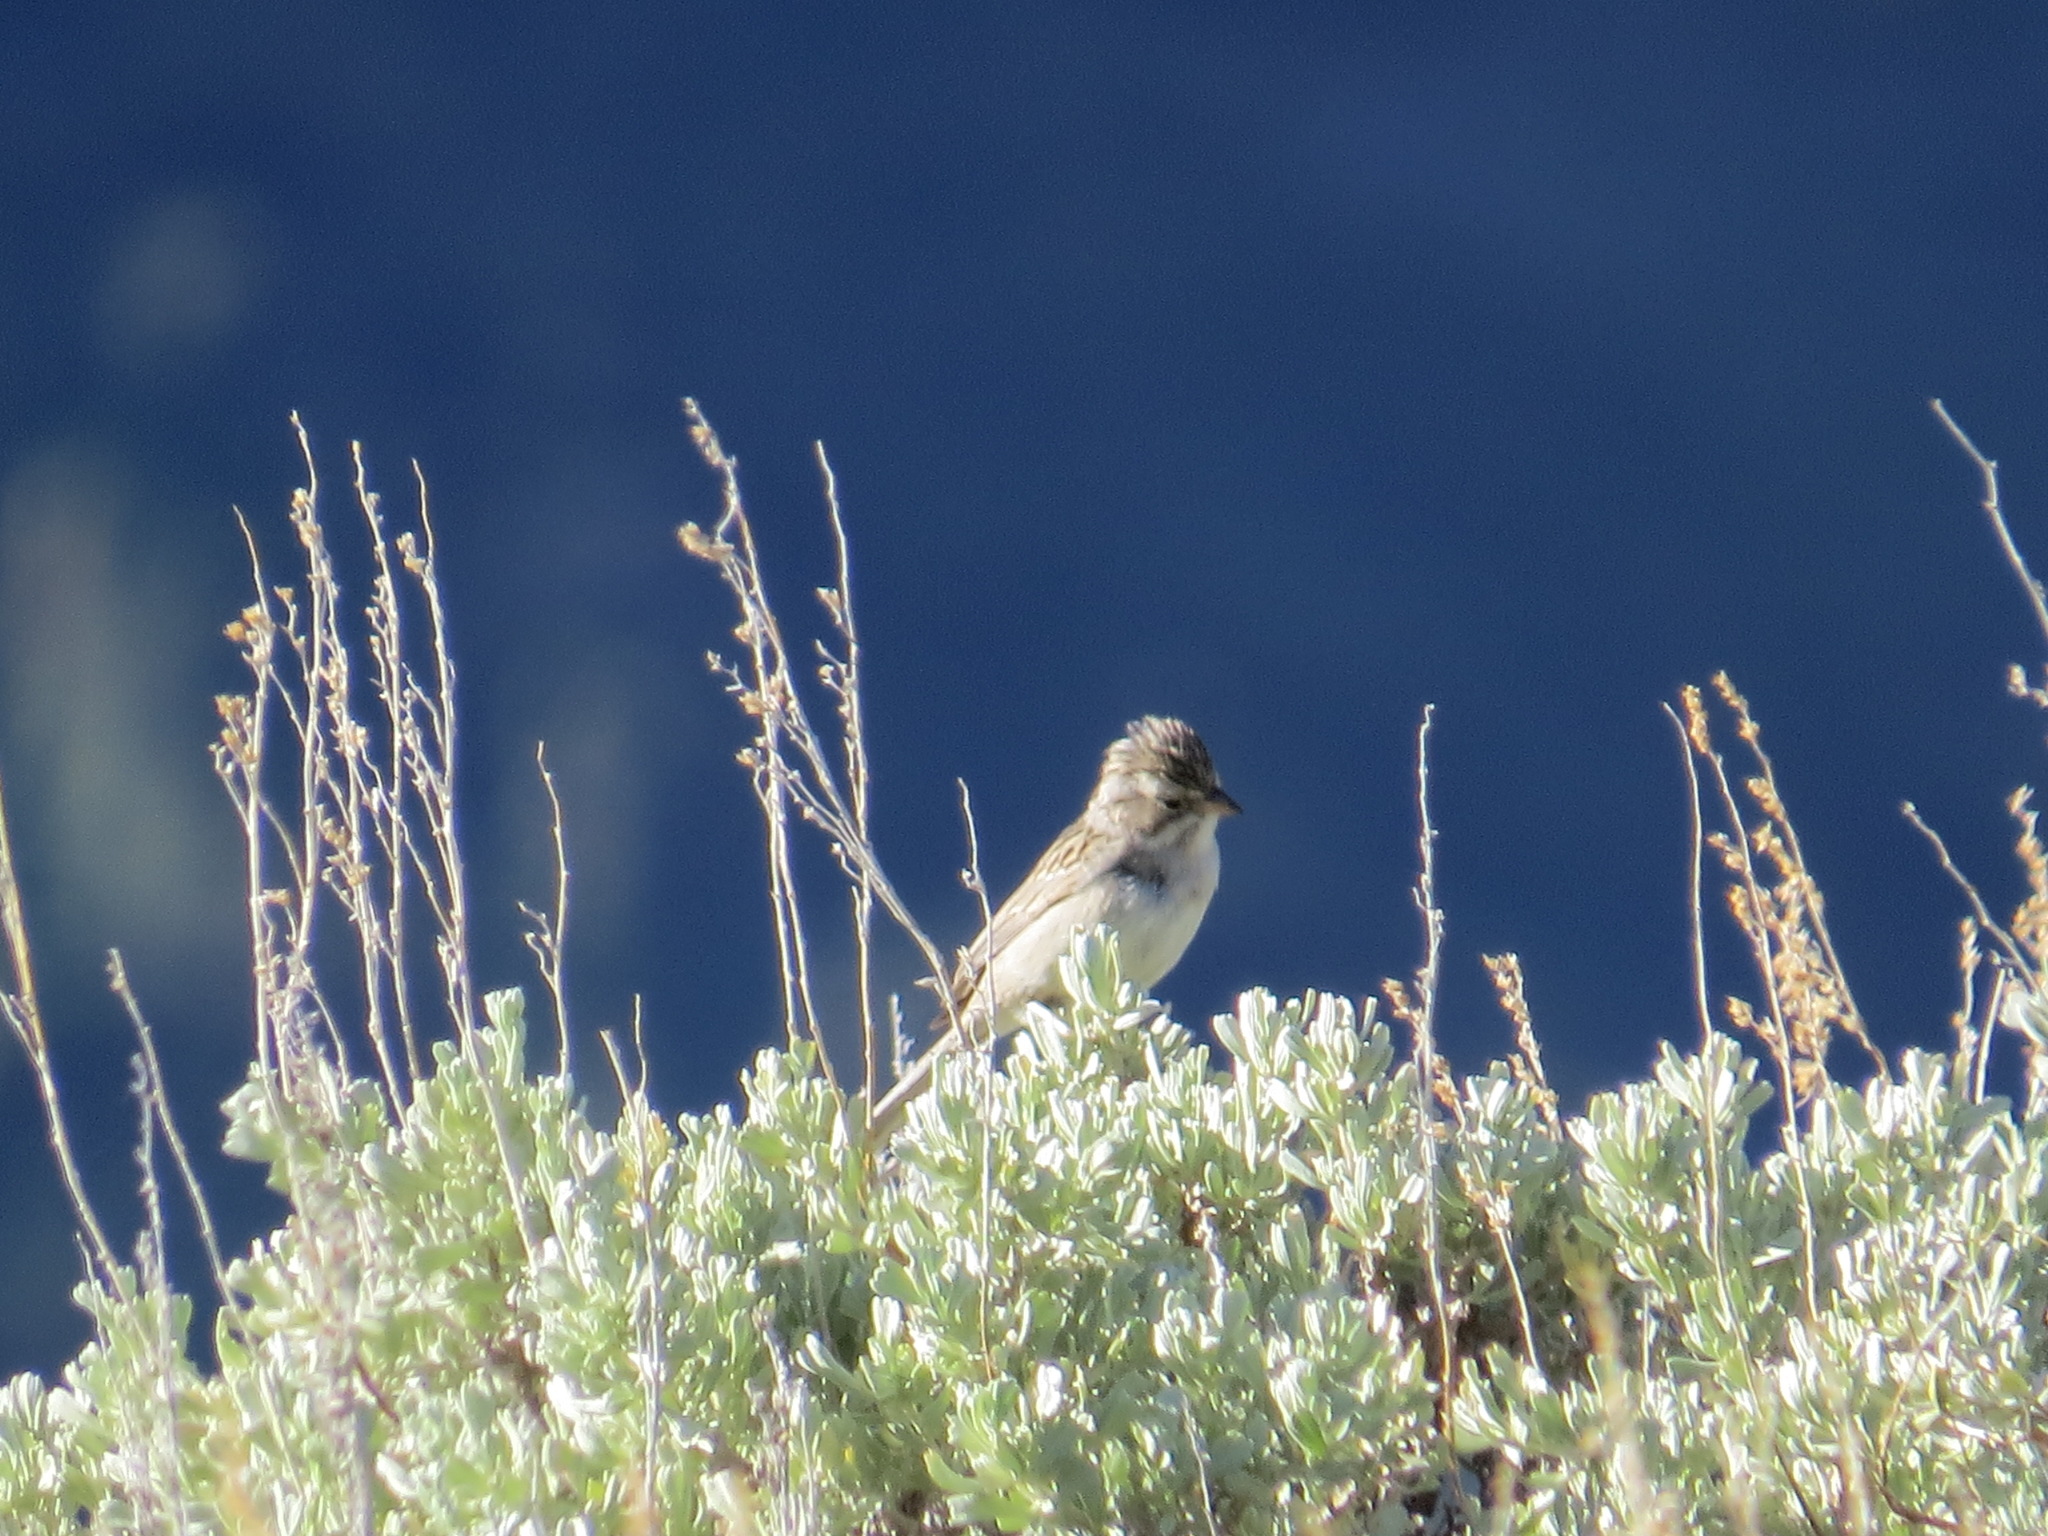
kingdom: Animalia
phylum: Chordata
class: Aves
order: Passeriformes
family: Passerellidae
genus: Spizella
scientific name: Spizella breweri
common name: Brewer's sparrow
